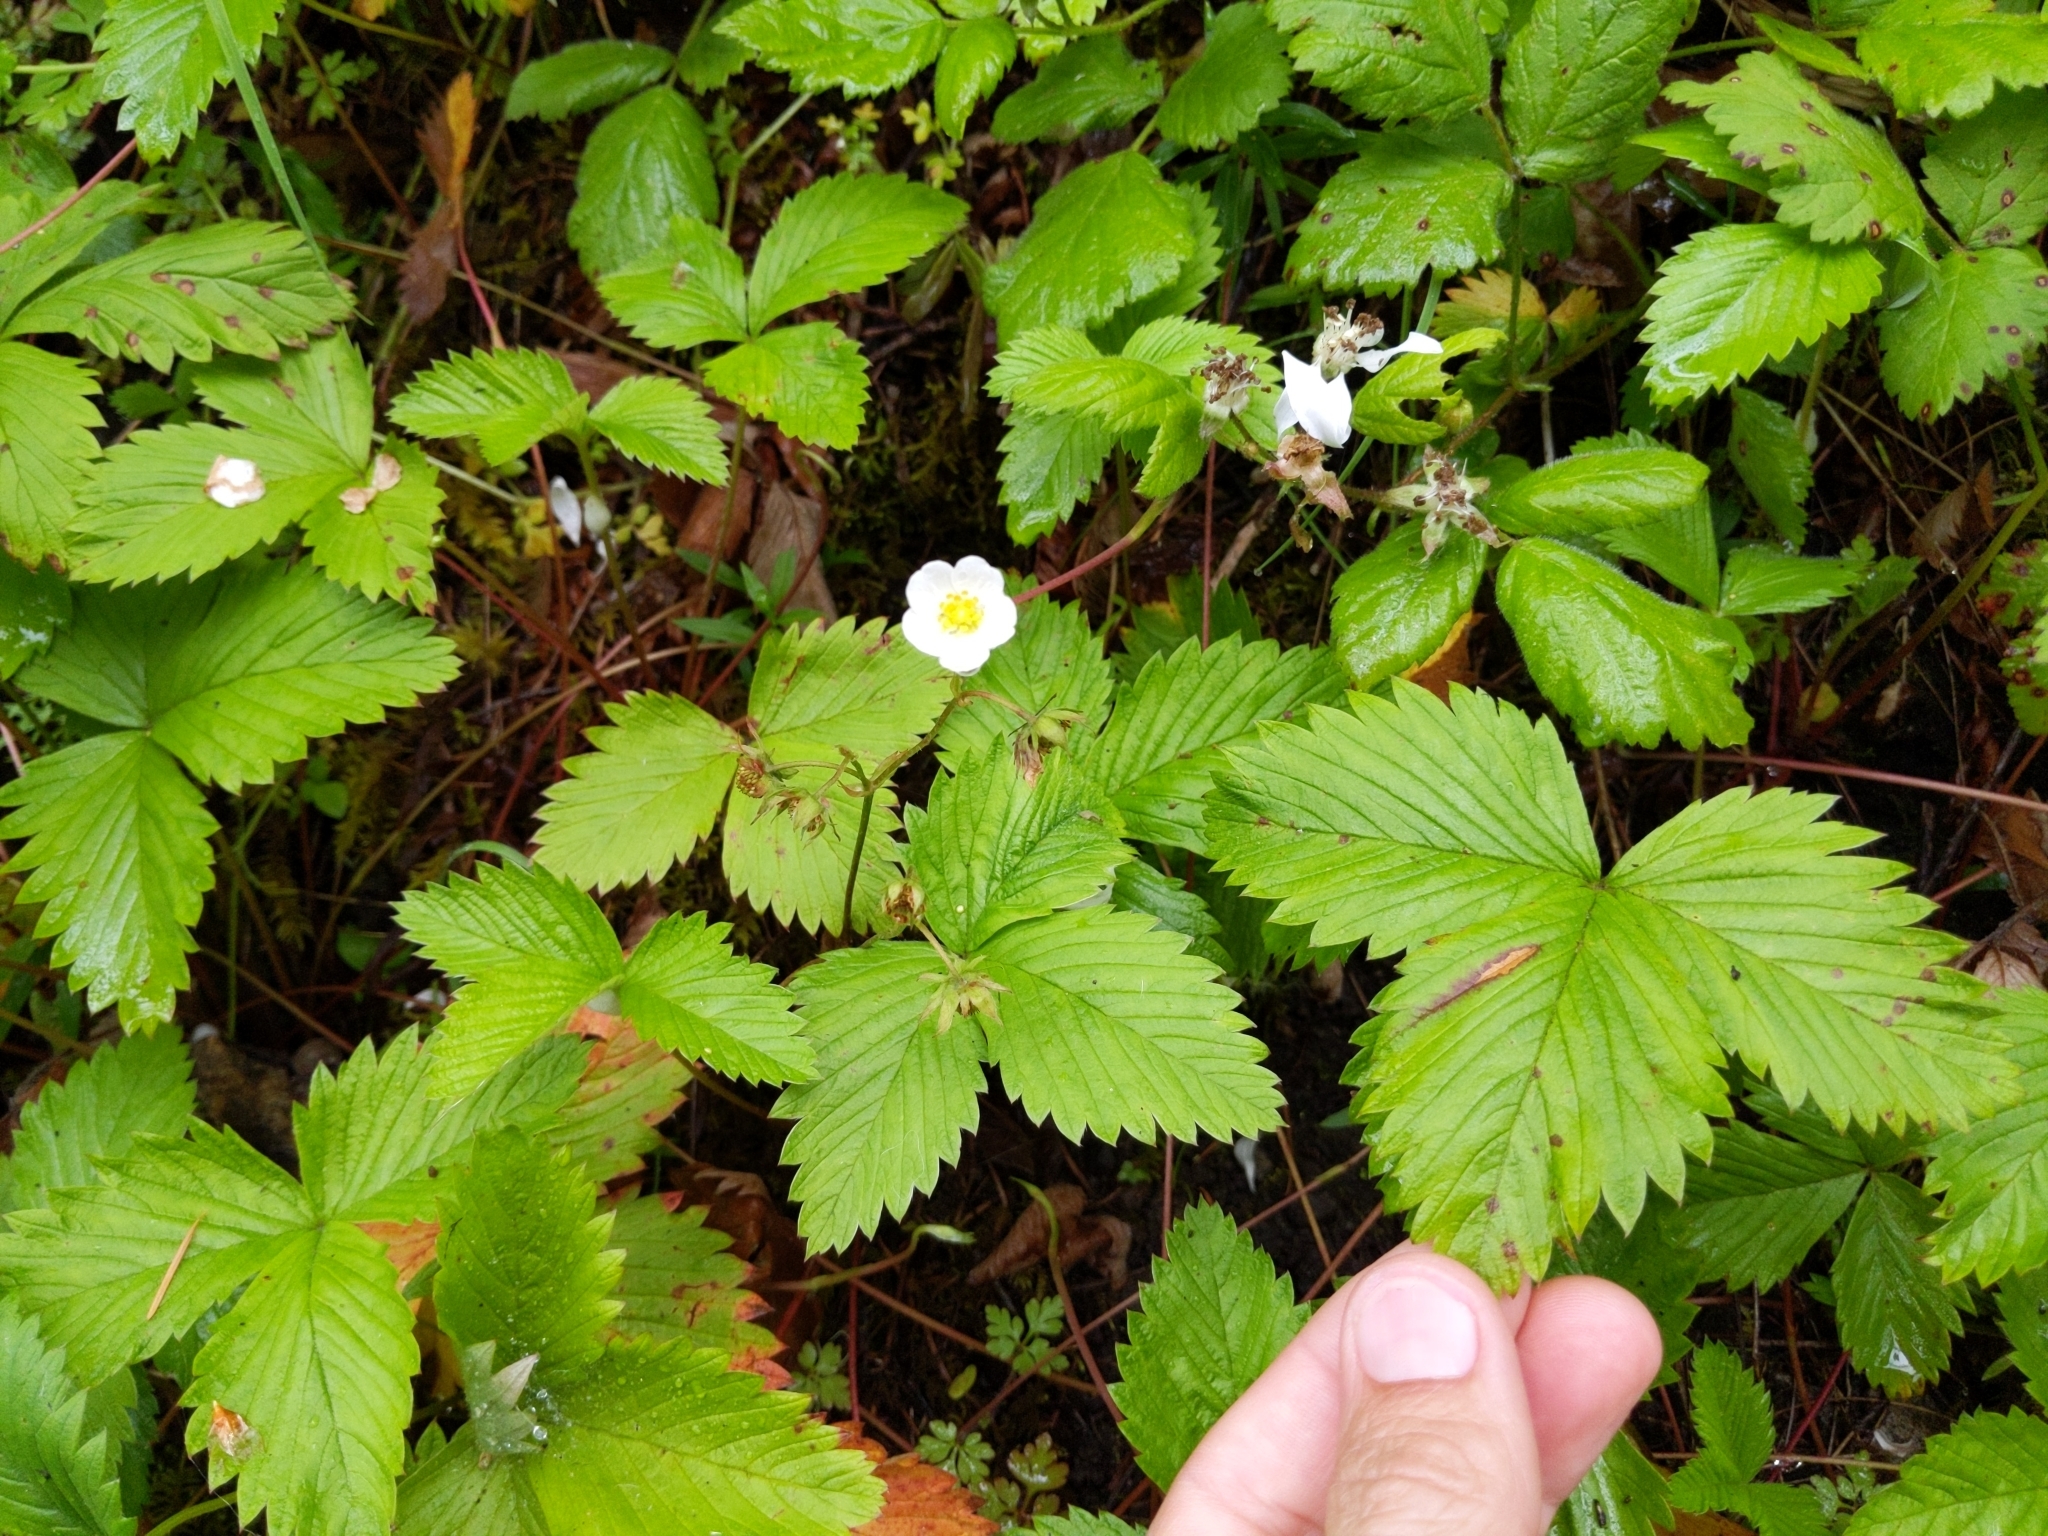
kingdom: Plantae
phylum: Tracheophyta
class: Magnoliopsida
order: Rosales
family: Rosaceae
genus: Fragaria
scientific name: Fragaria vesca
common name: Wild strawberry
